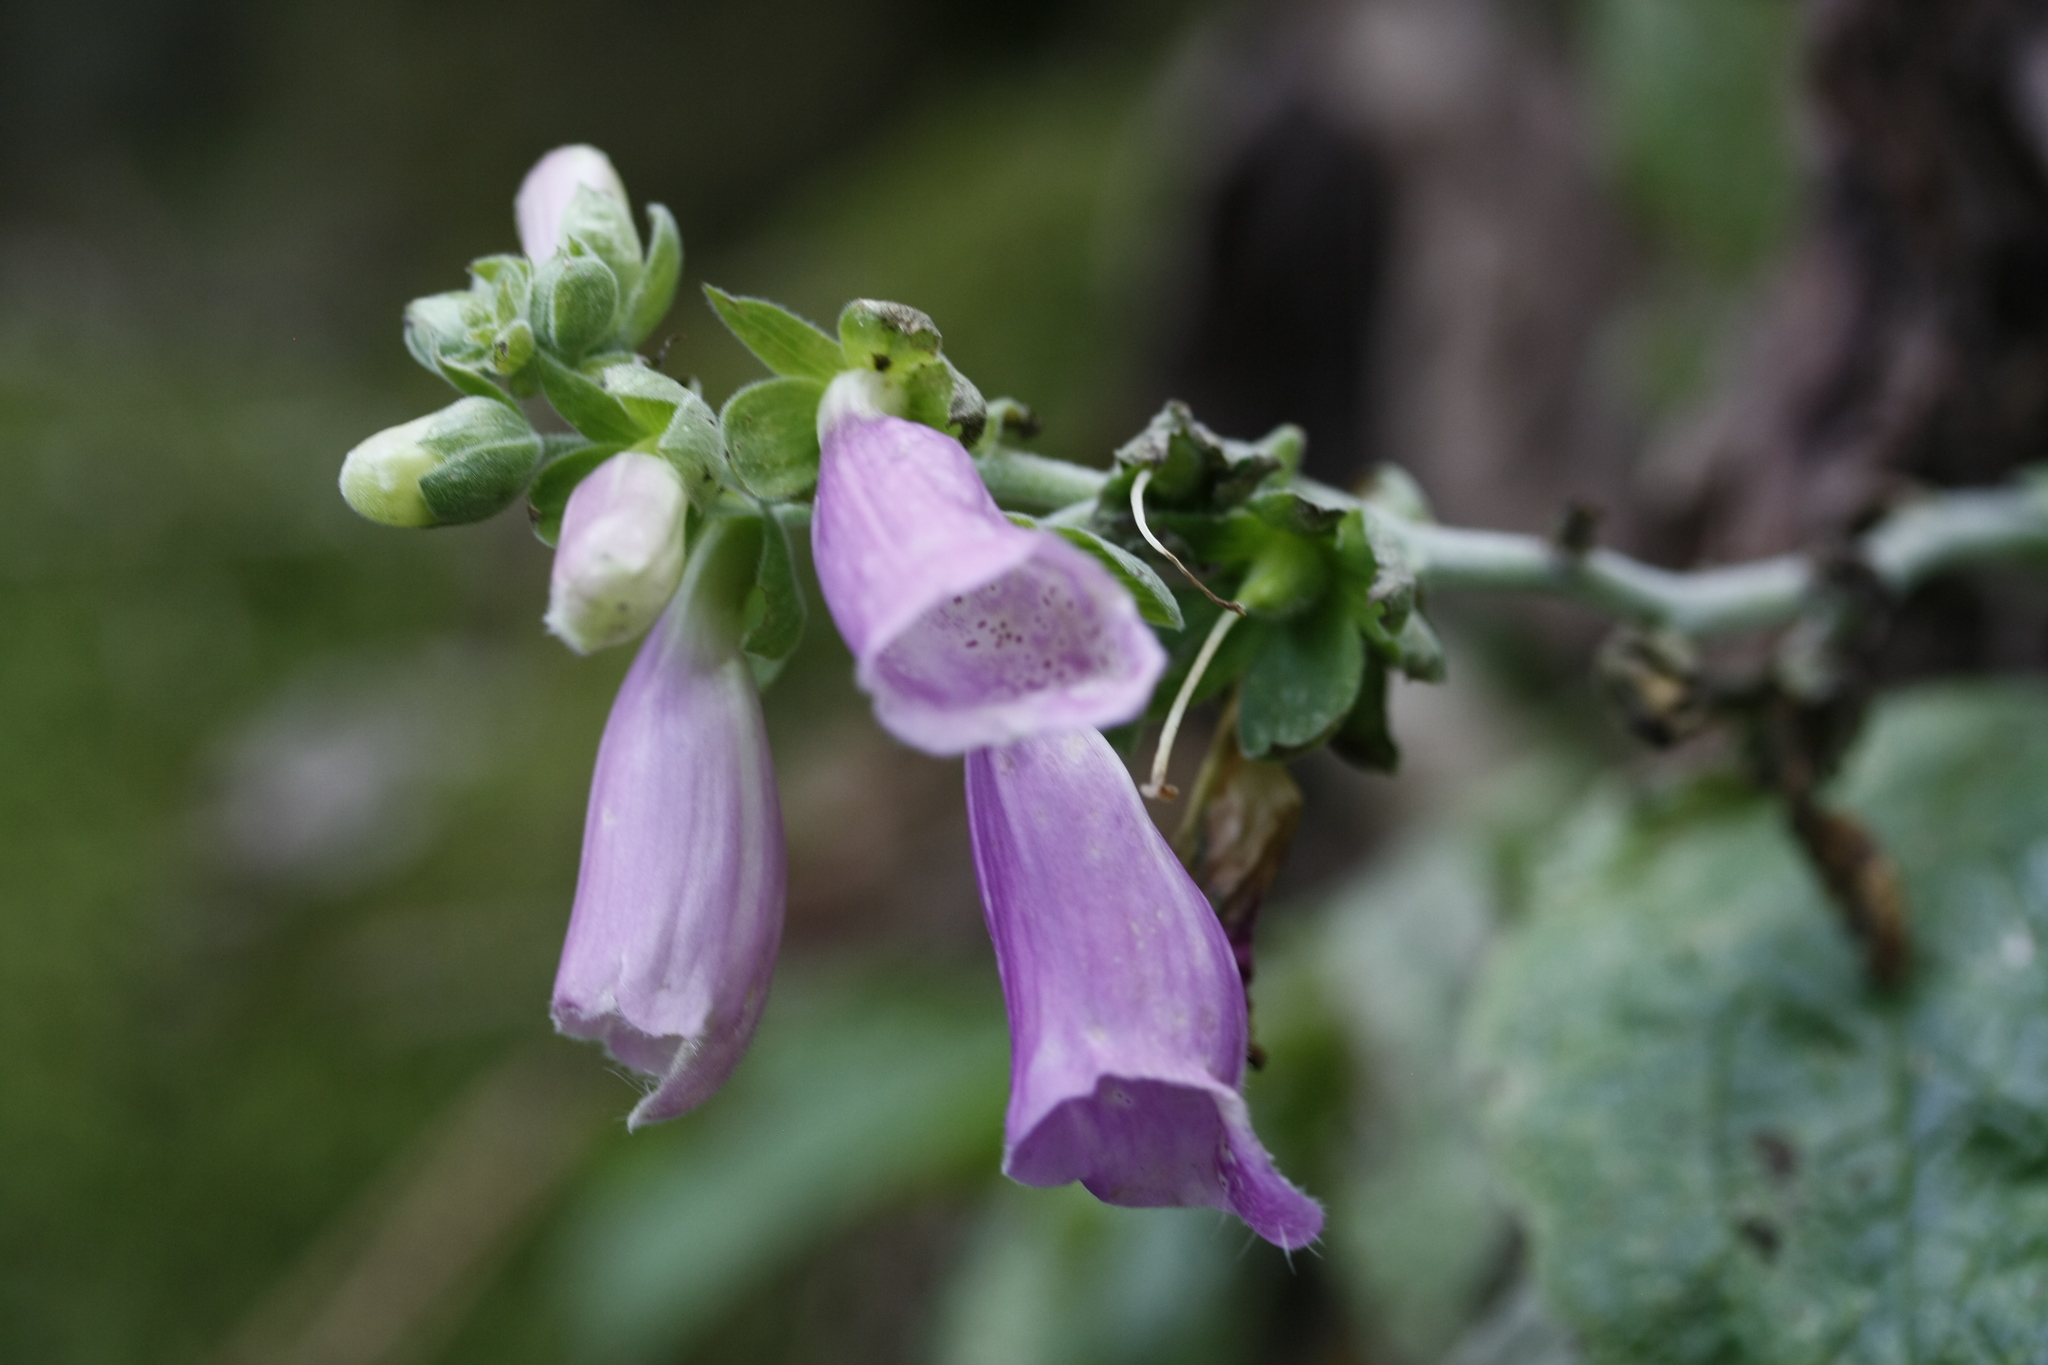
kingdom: Plantae
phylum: Tracheophyta
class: Magnoliopsida
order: Lamiales
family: Plantaginaceae
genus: Digitalis
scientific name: Digitalis purpurea
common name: Foxglove
